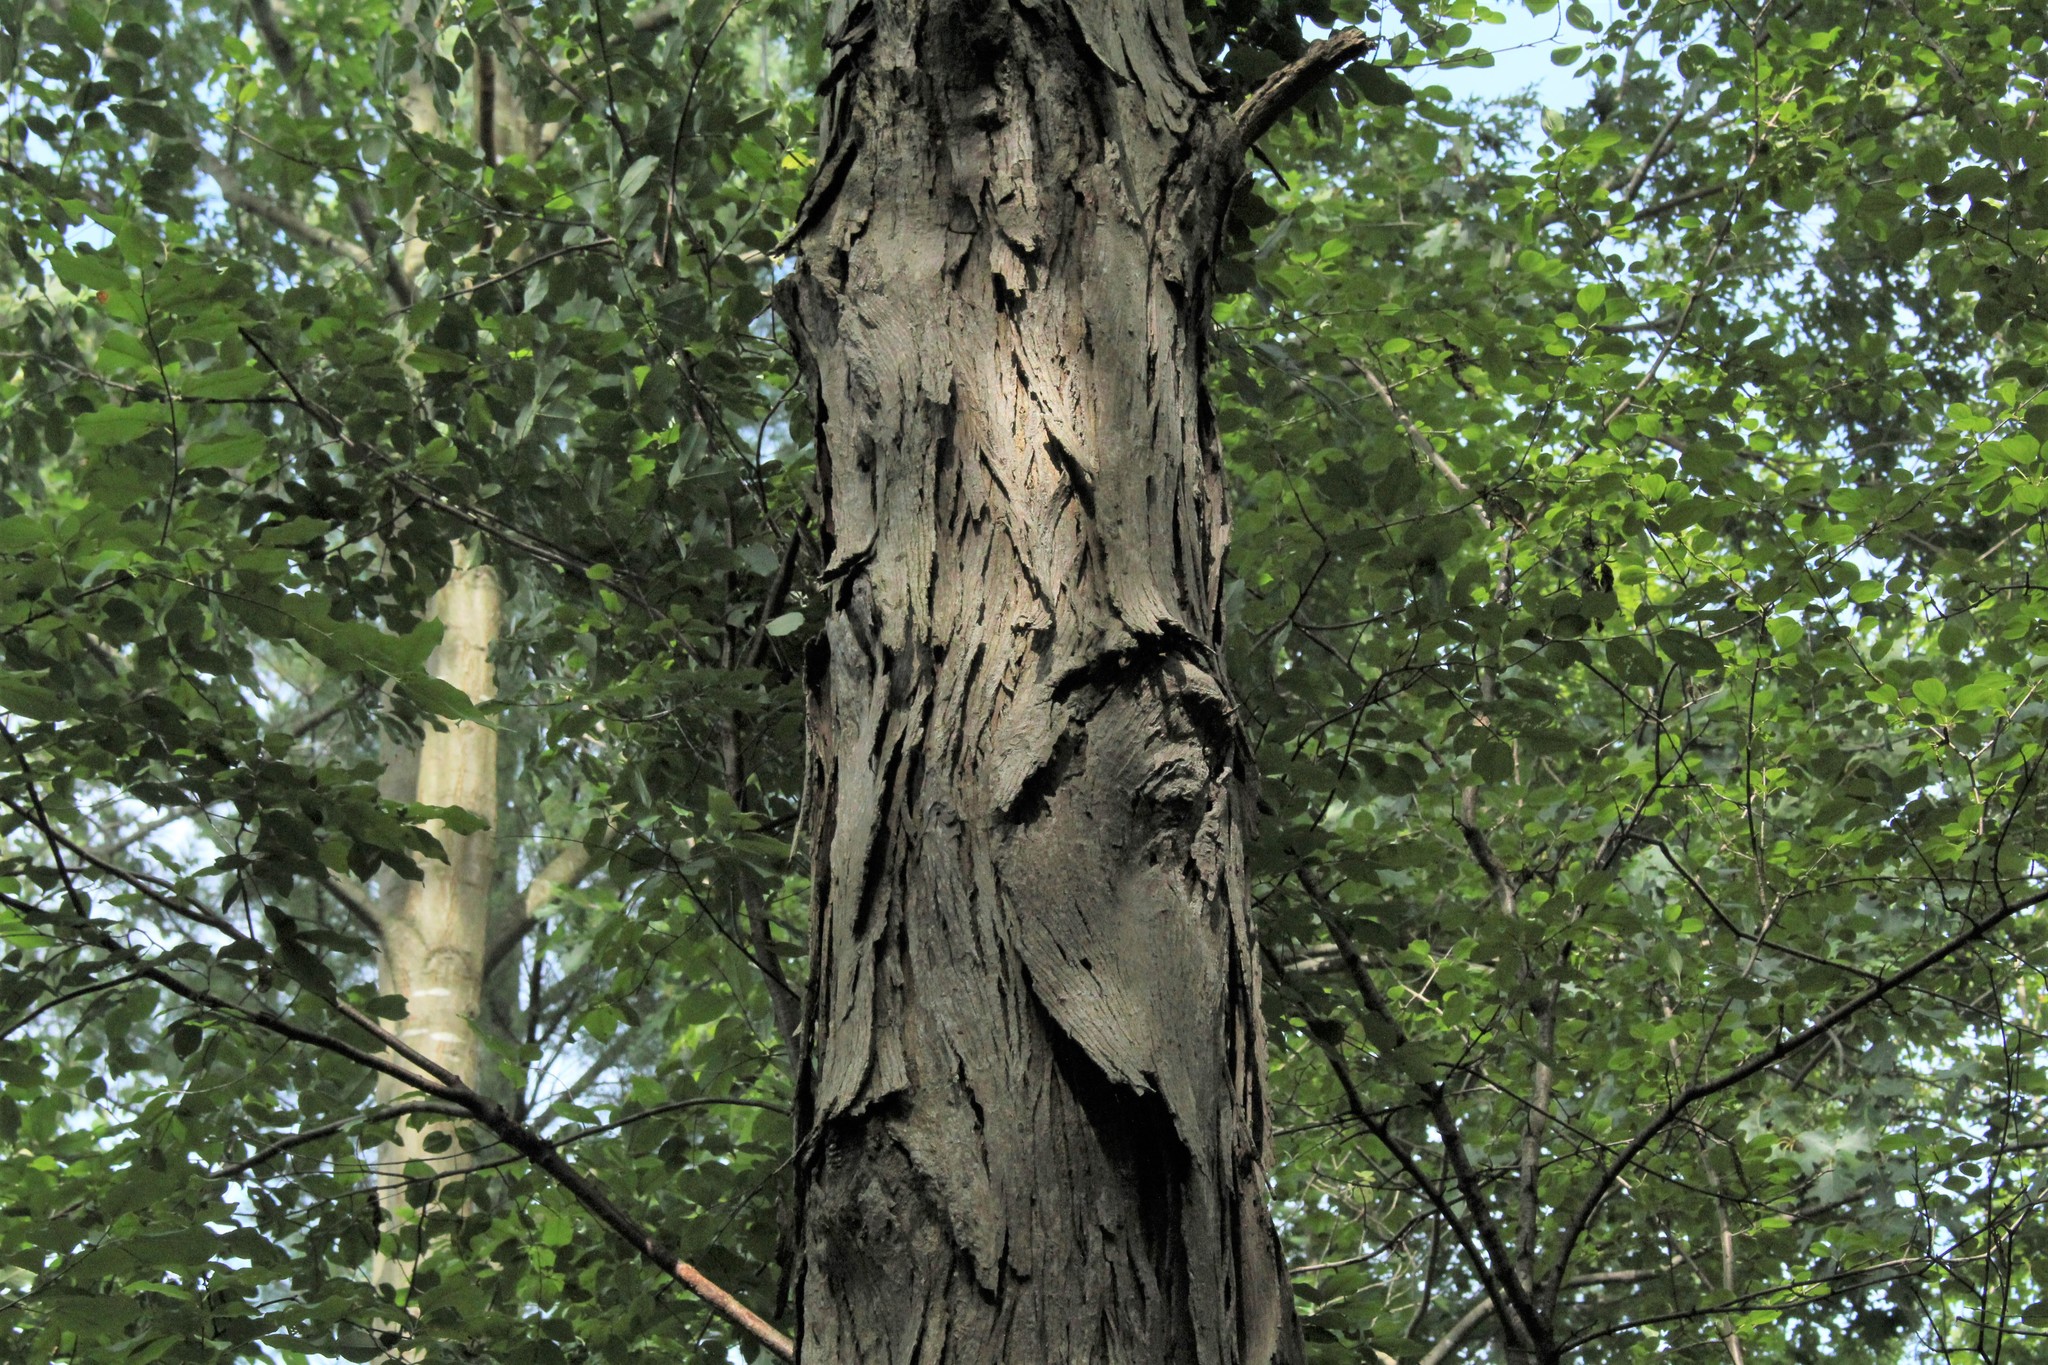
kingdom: Plantae
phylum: Tracheophyta
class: Magnoliopsida
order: Fagales
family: Juglandaceae
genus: Carya
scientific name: Carya ovata
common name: Shagbark hickory
